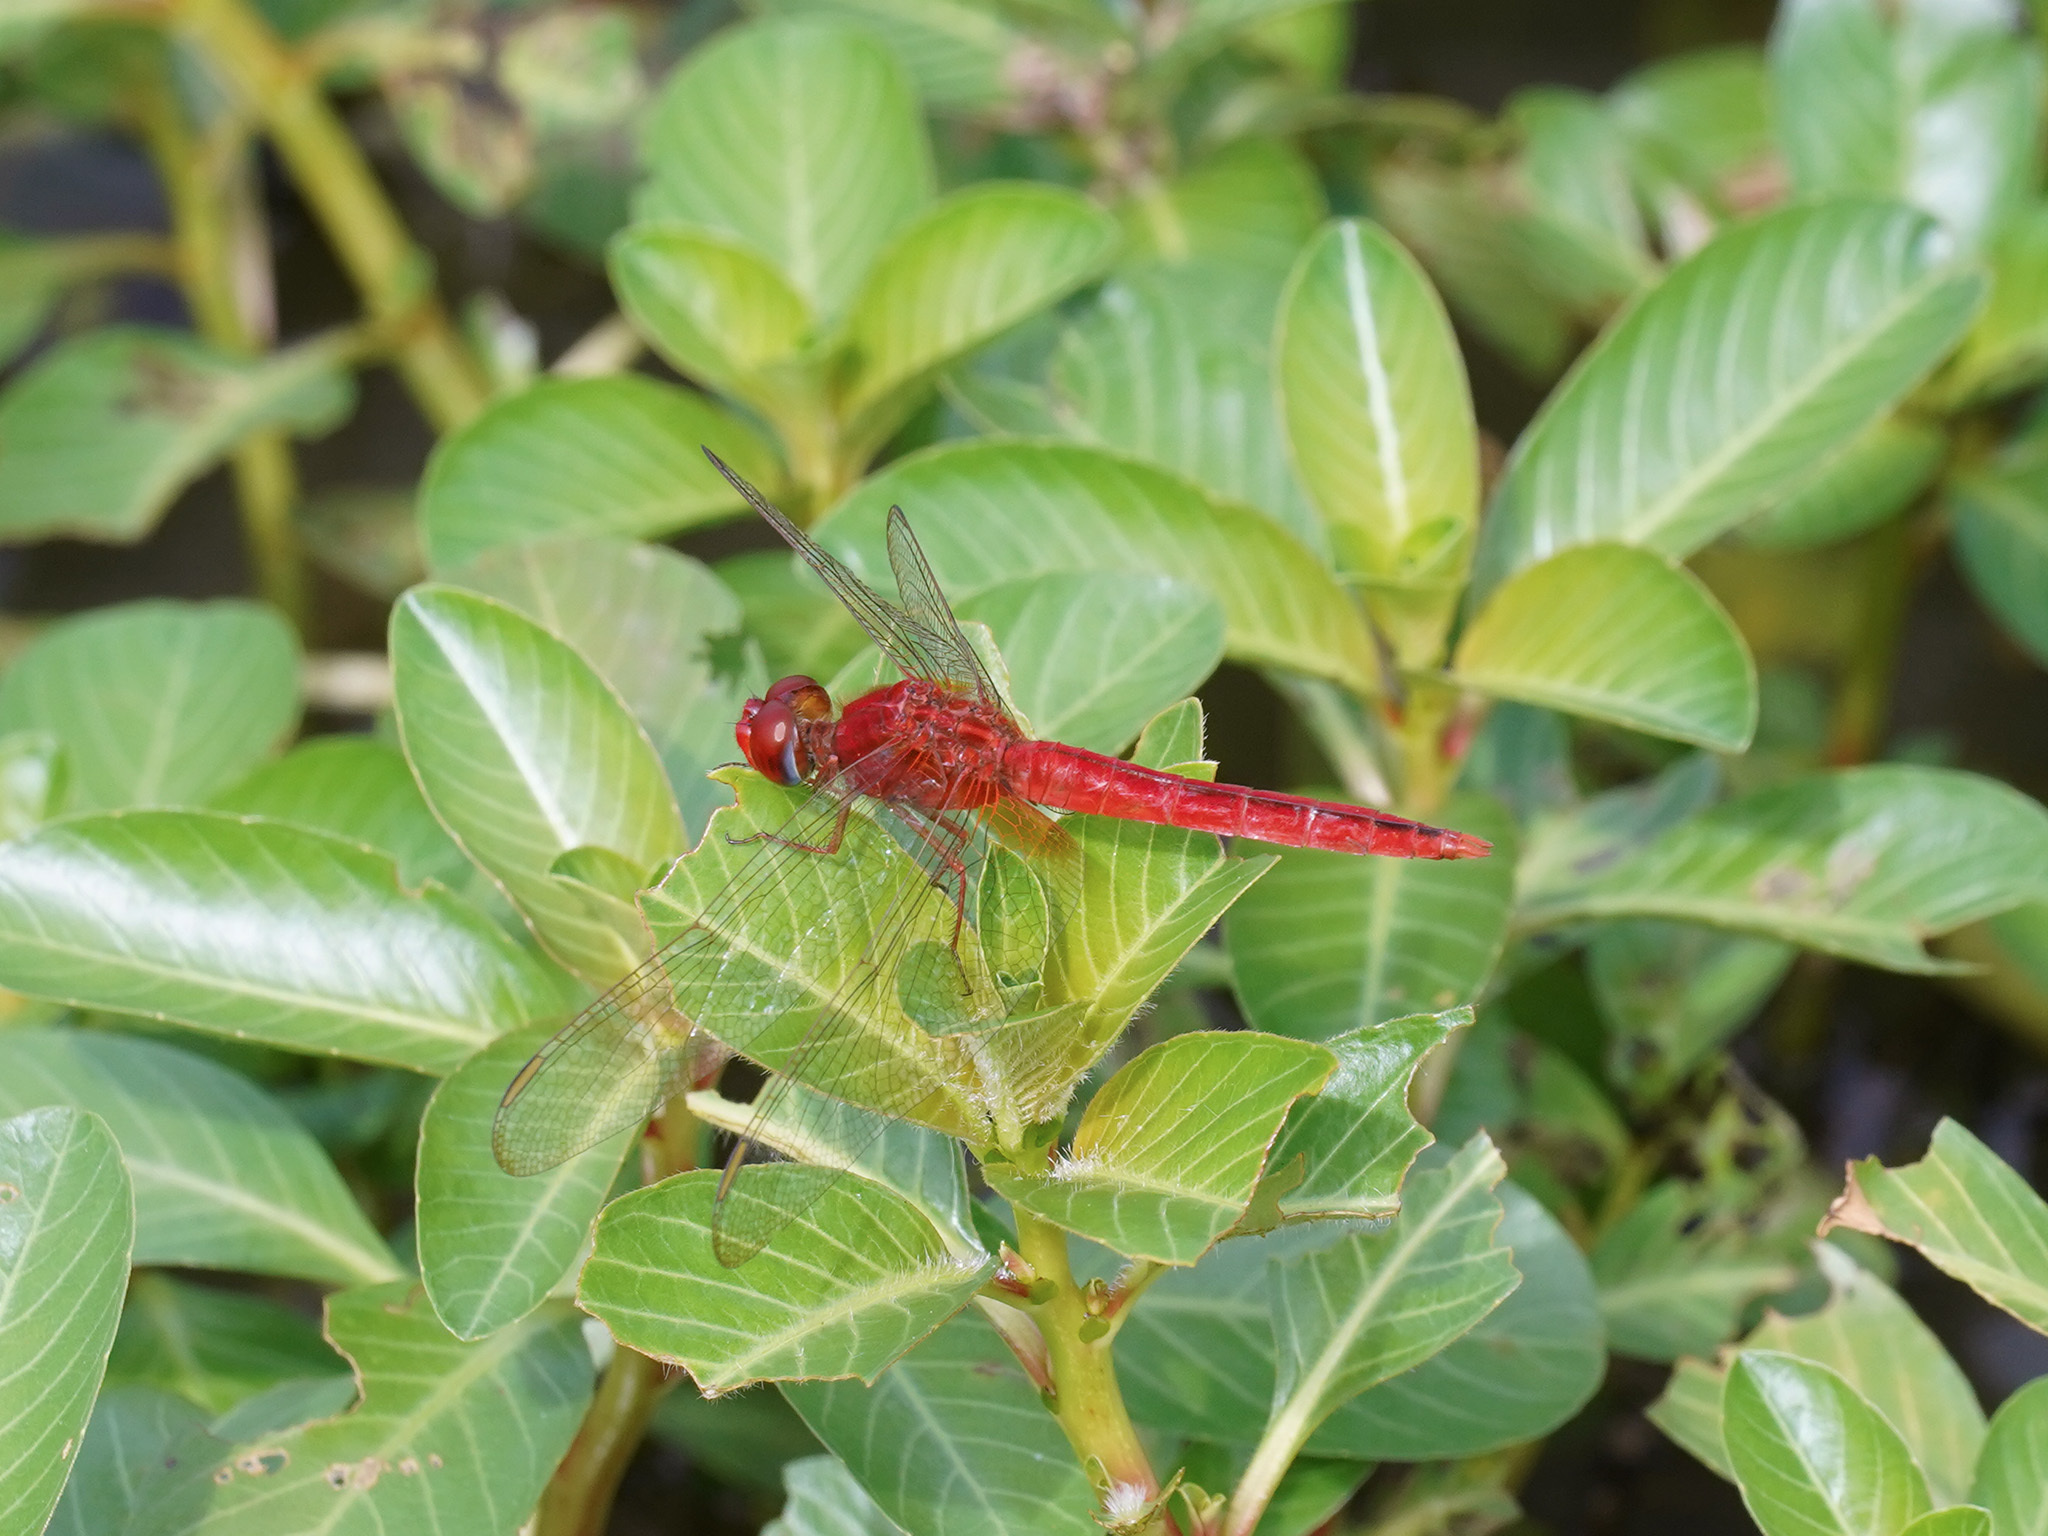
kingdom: Animalia
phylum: Arthropoda
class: Insecta
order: Odonata
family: Libellulidae
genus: Crocothemis
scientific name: Crocothemis servilia
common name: Scarlet skimmer
